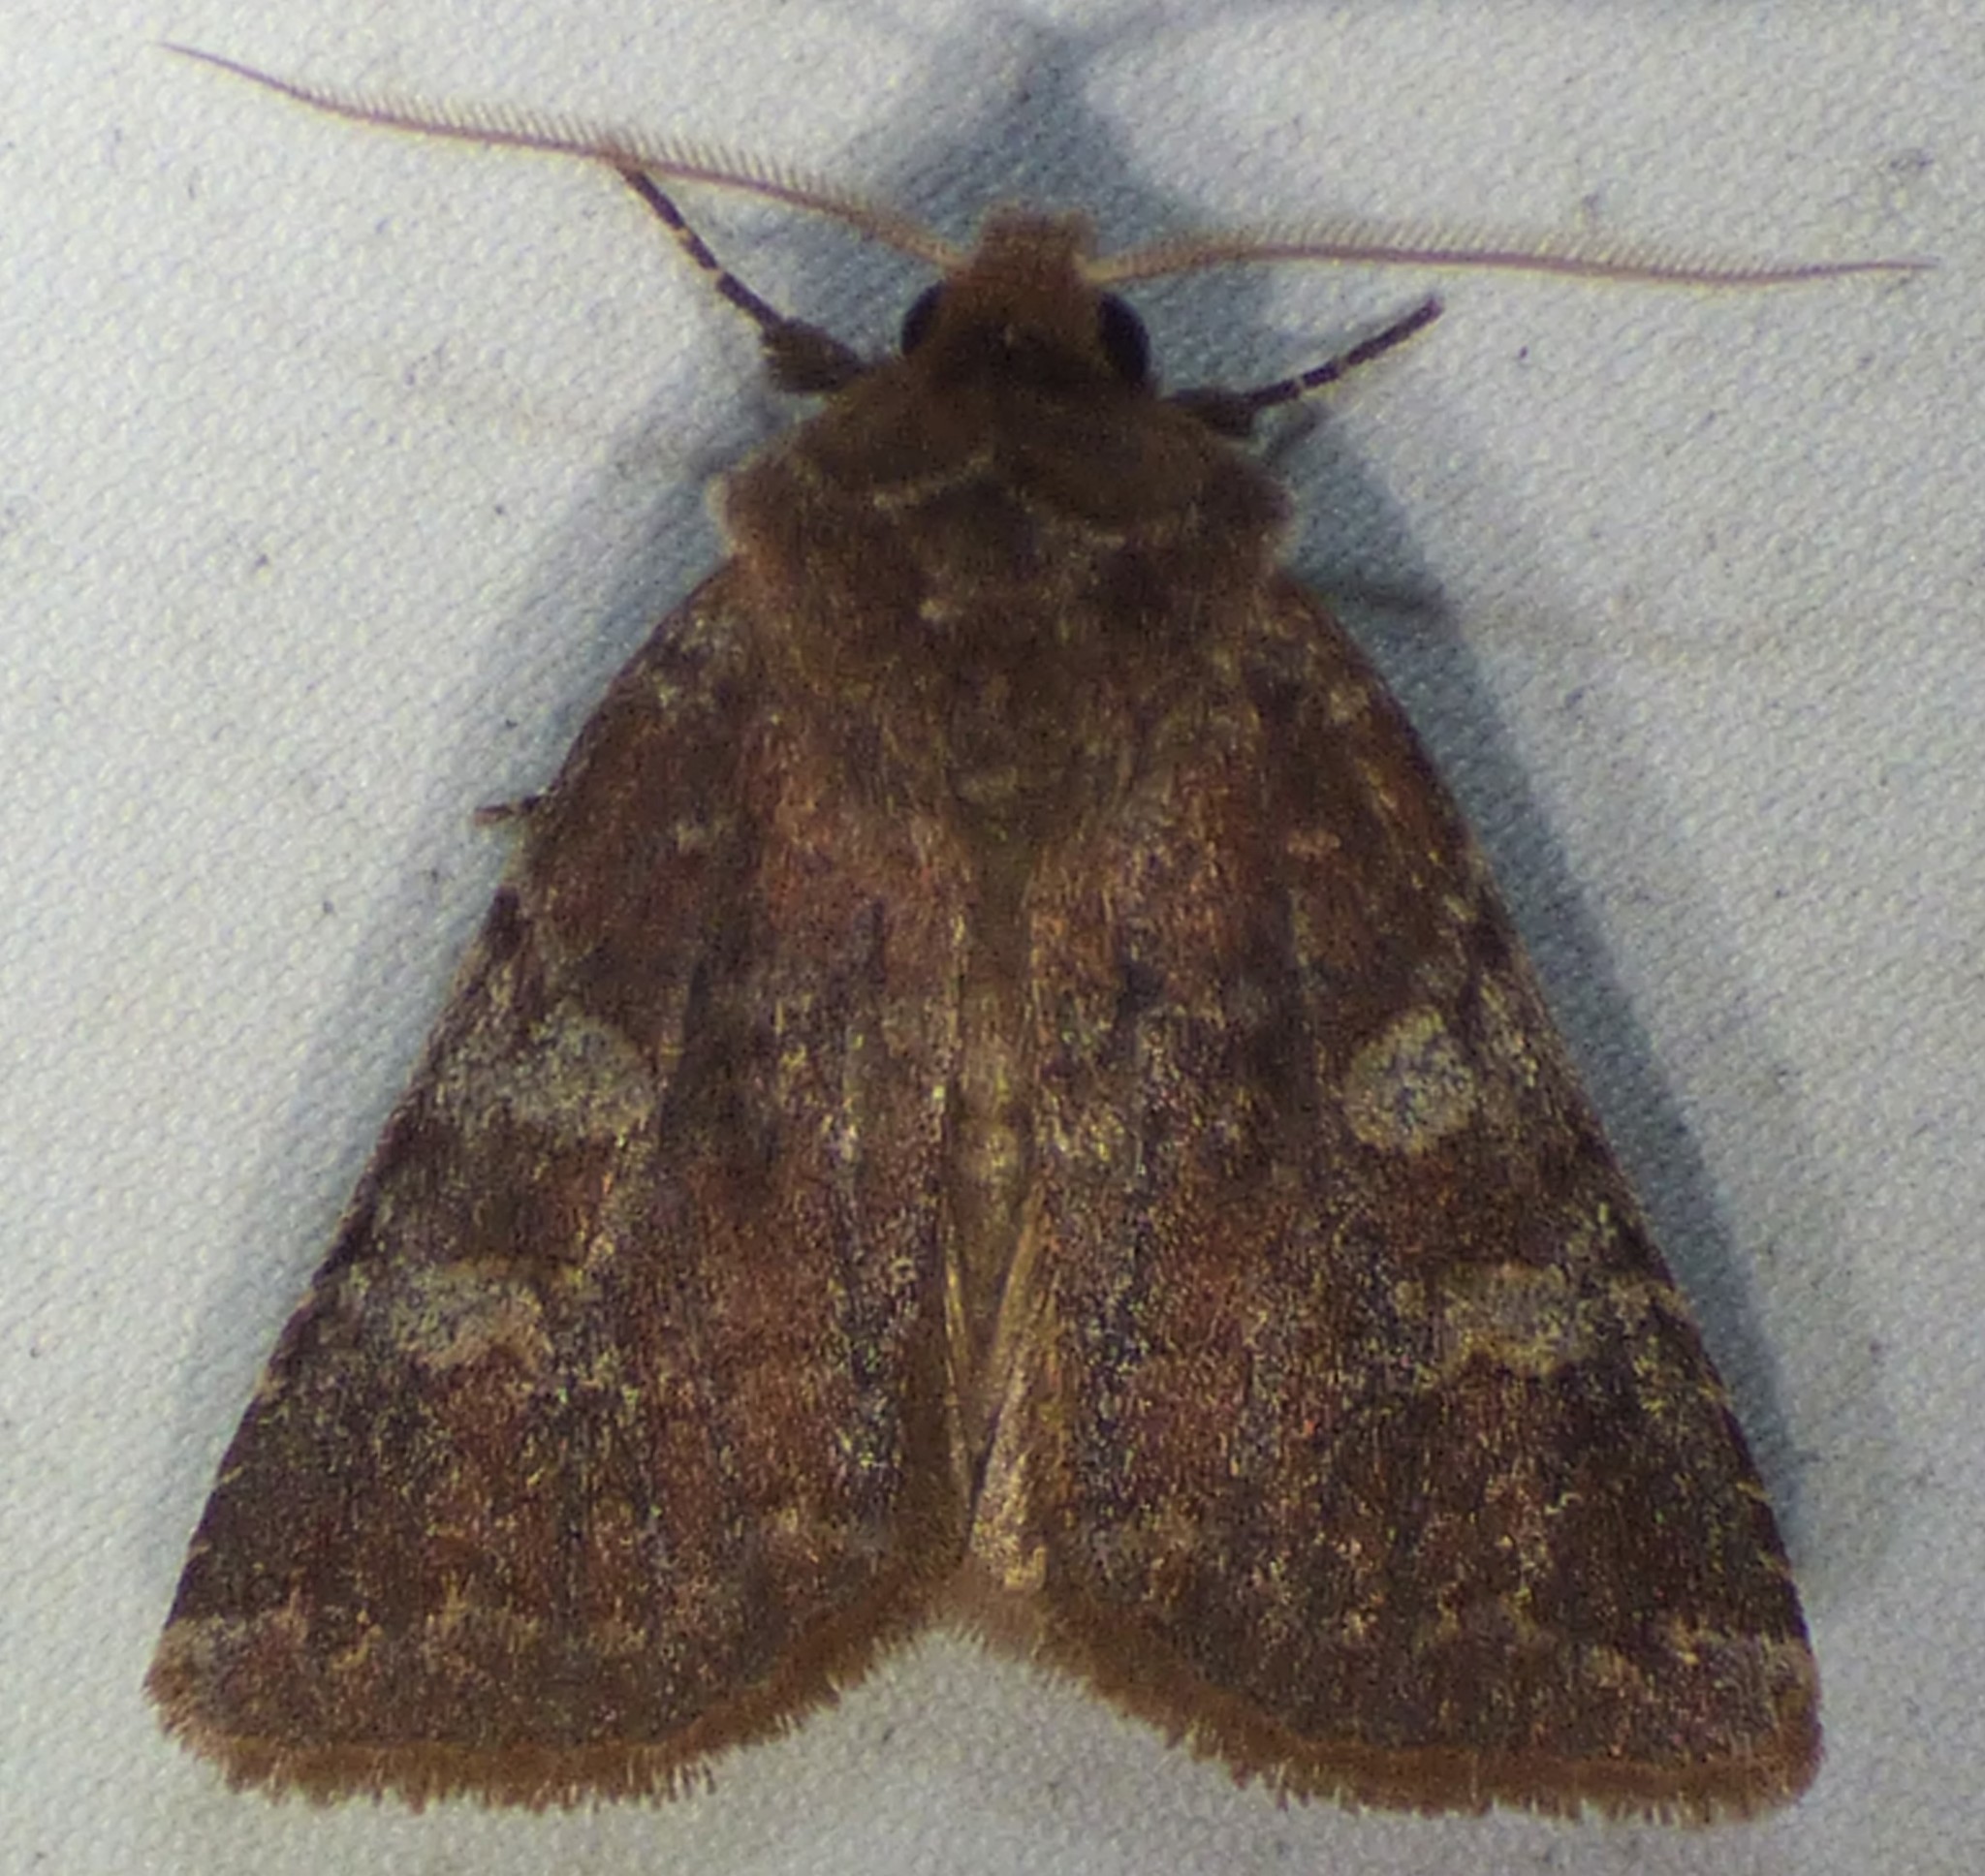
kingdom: Animalia
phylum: Arthropoda
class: Insecta
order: Lepidoptera
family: Noctuidae
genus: Cerastis
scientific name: Cerastis tenebrifera
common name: Reddish speckled dart
